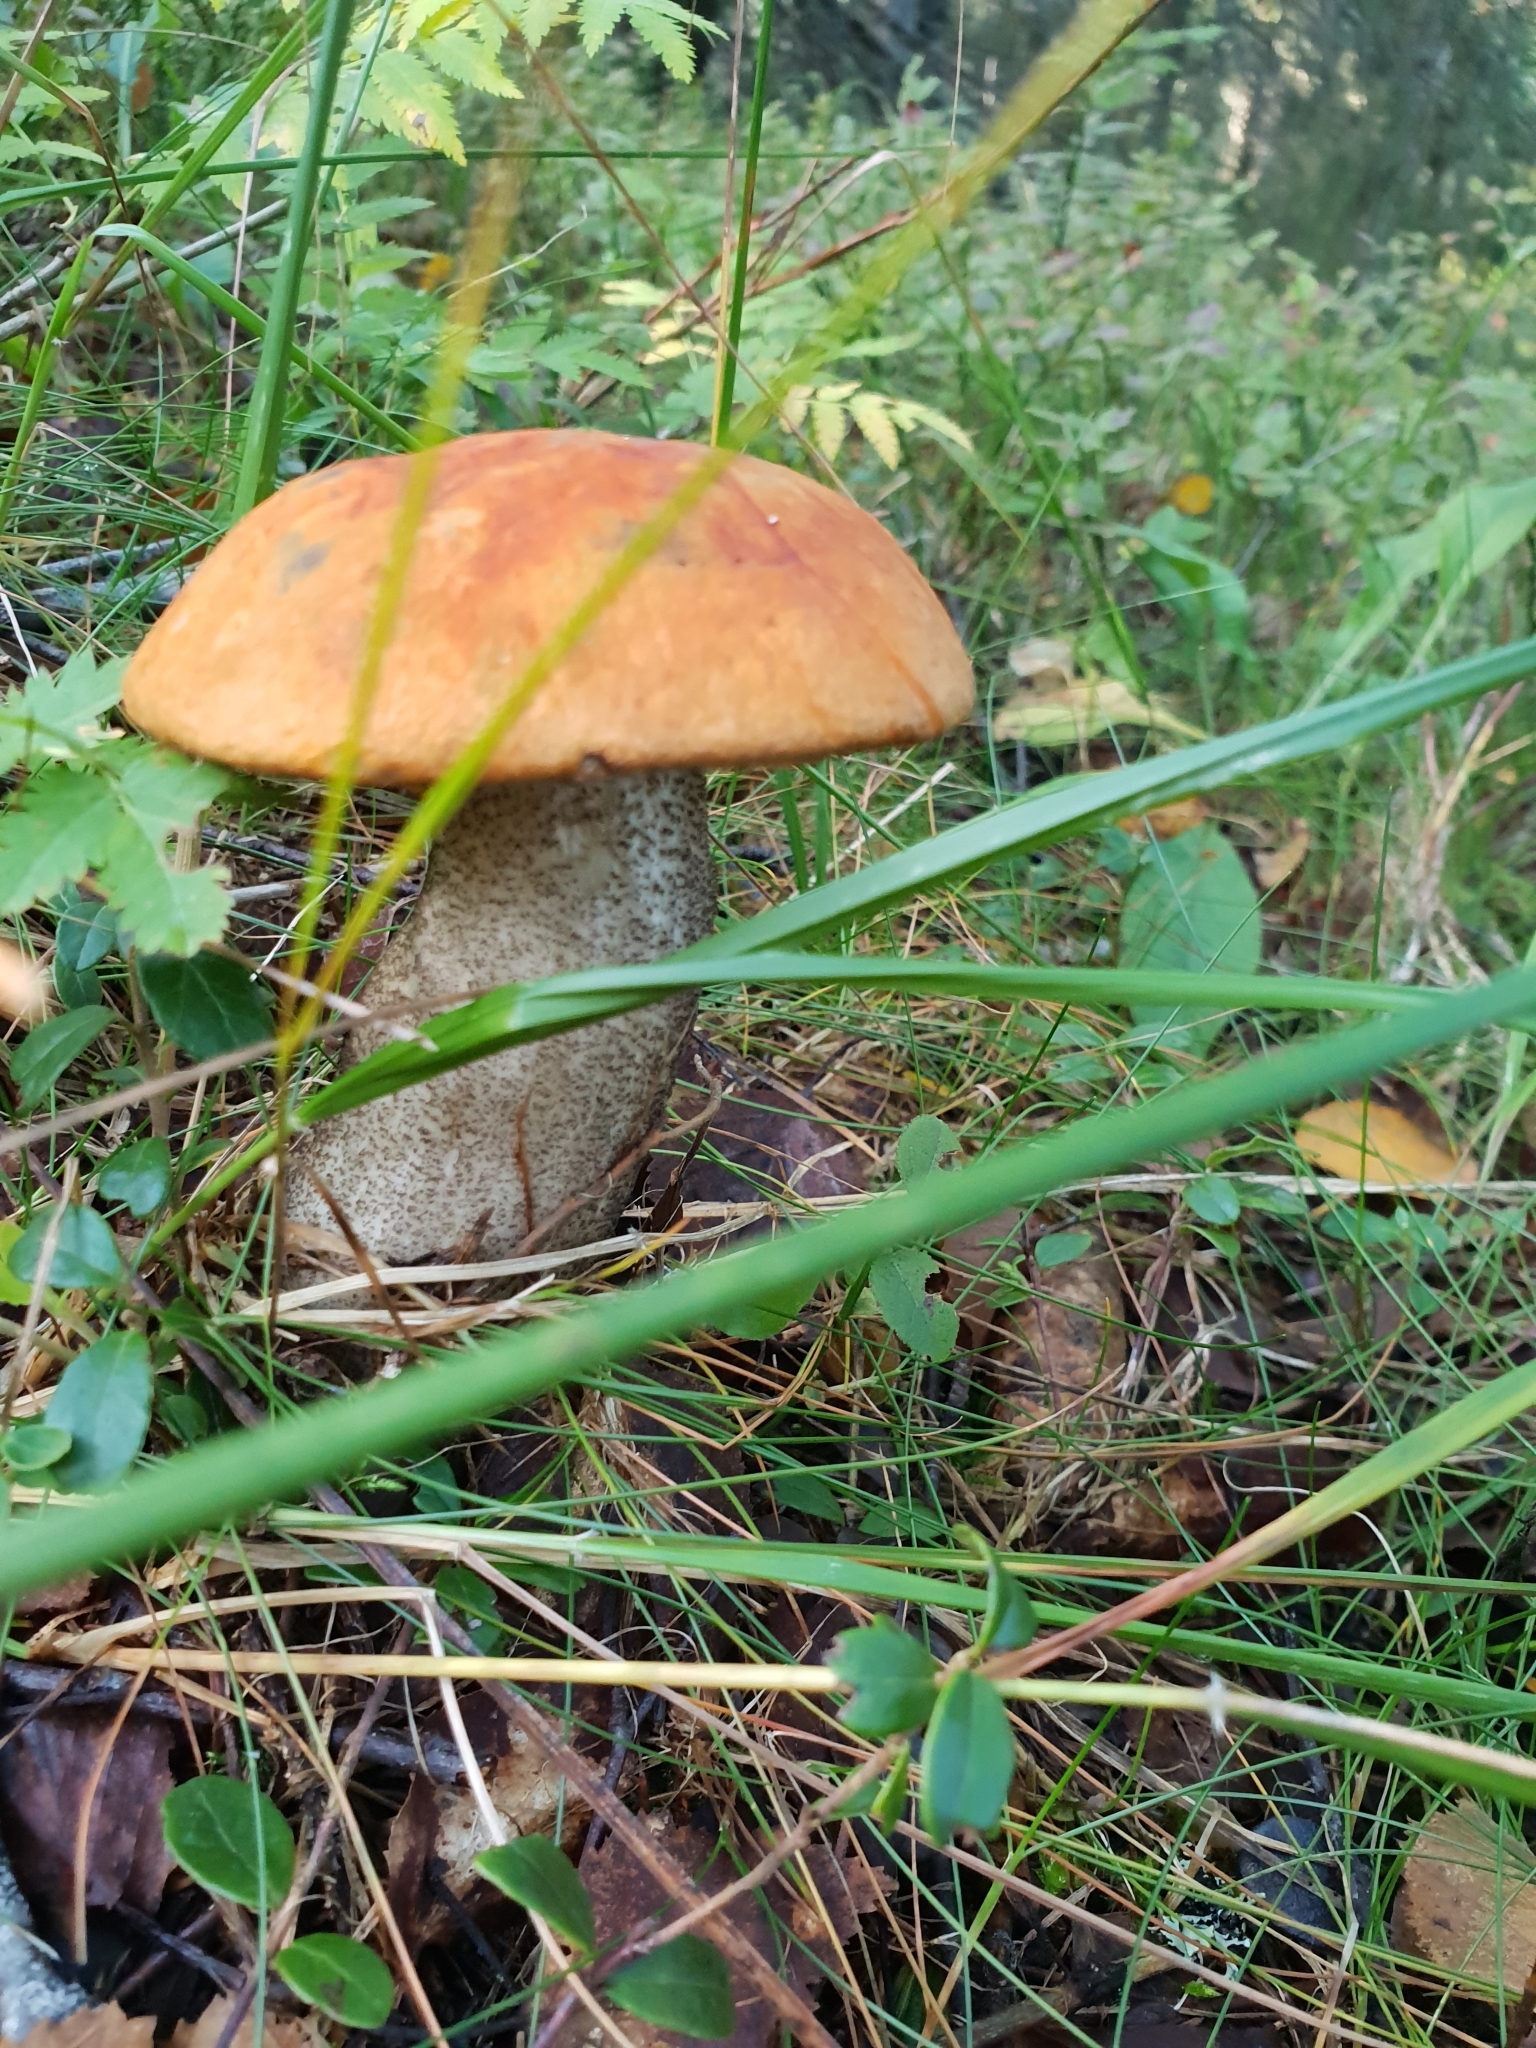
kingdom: Fungi
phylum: Basidiomycota
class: Agaricomycetes
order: Boletales
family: Boletaceae
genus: Leccinum
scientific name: Leccinum versipelle
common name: Orange birch bolete
